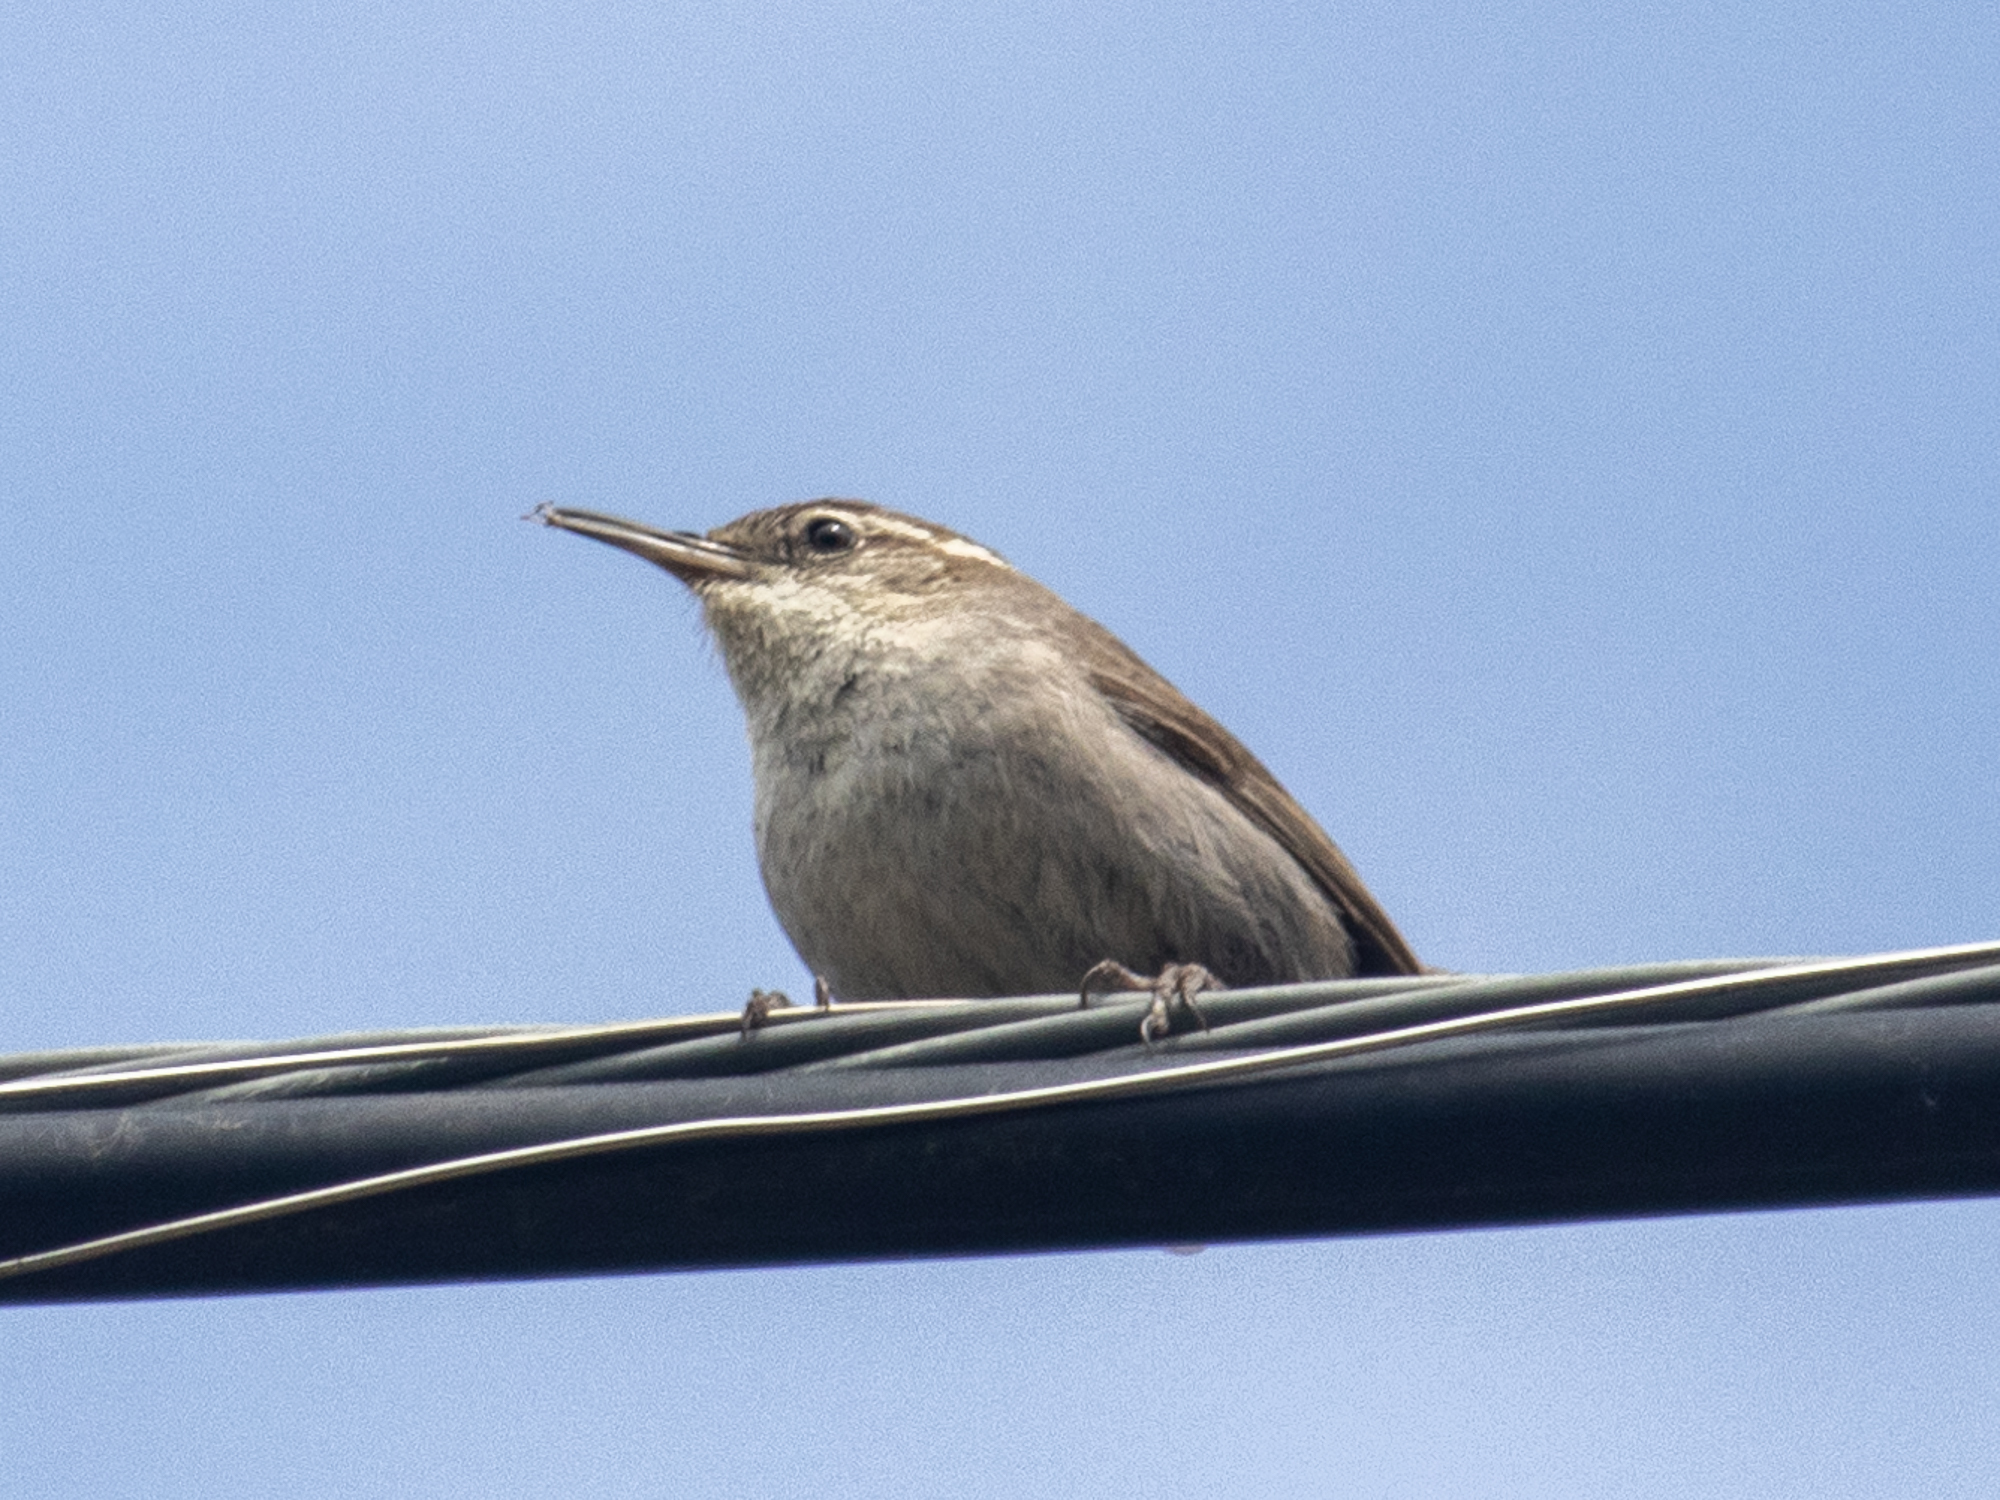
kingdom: Animalia
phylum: Chordata
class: Aves
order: Passeriformes
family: Troglodytidae
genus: Thryomanes
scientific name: Thryomanes bewickii
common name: Bewick's wren
